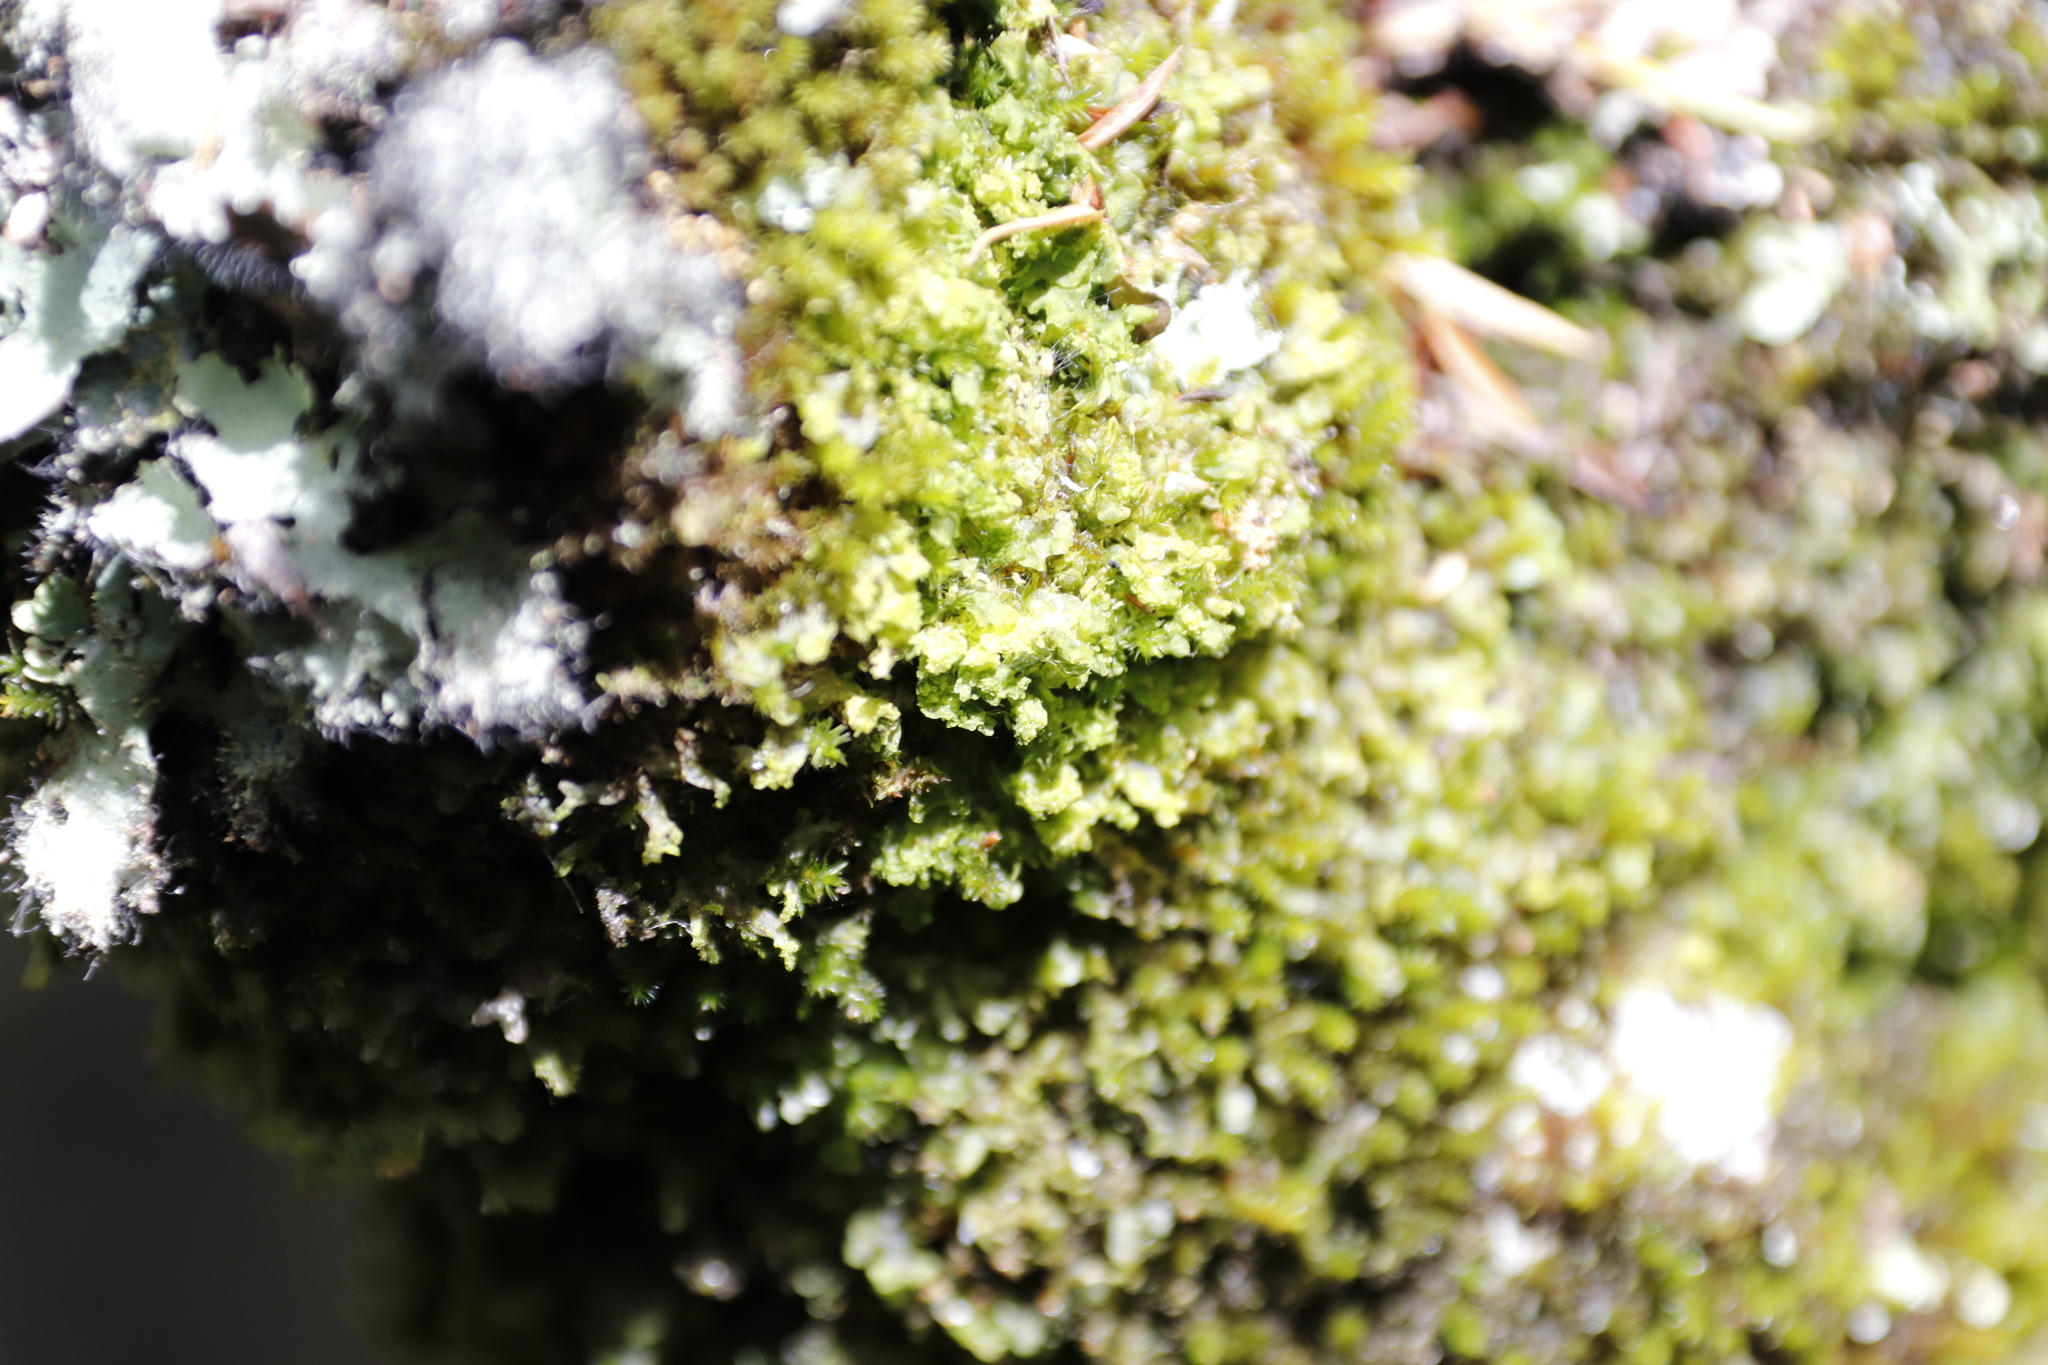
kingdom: Plantae
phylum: Bryophyta
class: Bryopsida
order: Orthotrichales
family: Orthotrichaceae
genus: Macrocoma
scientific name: Macrocoma tenuis
